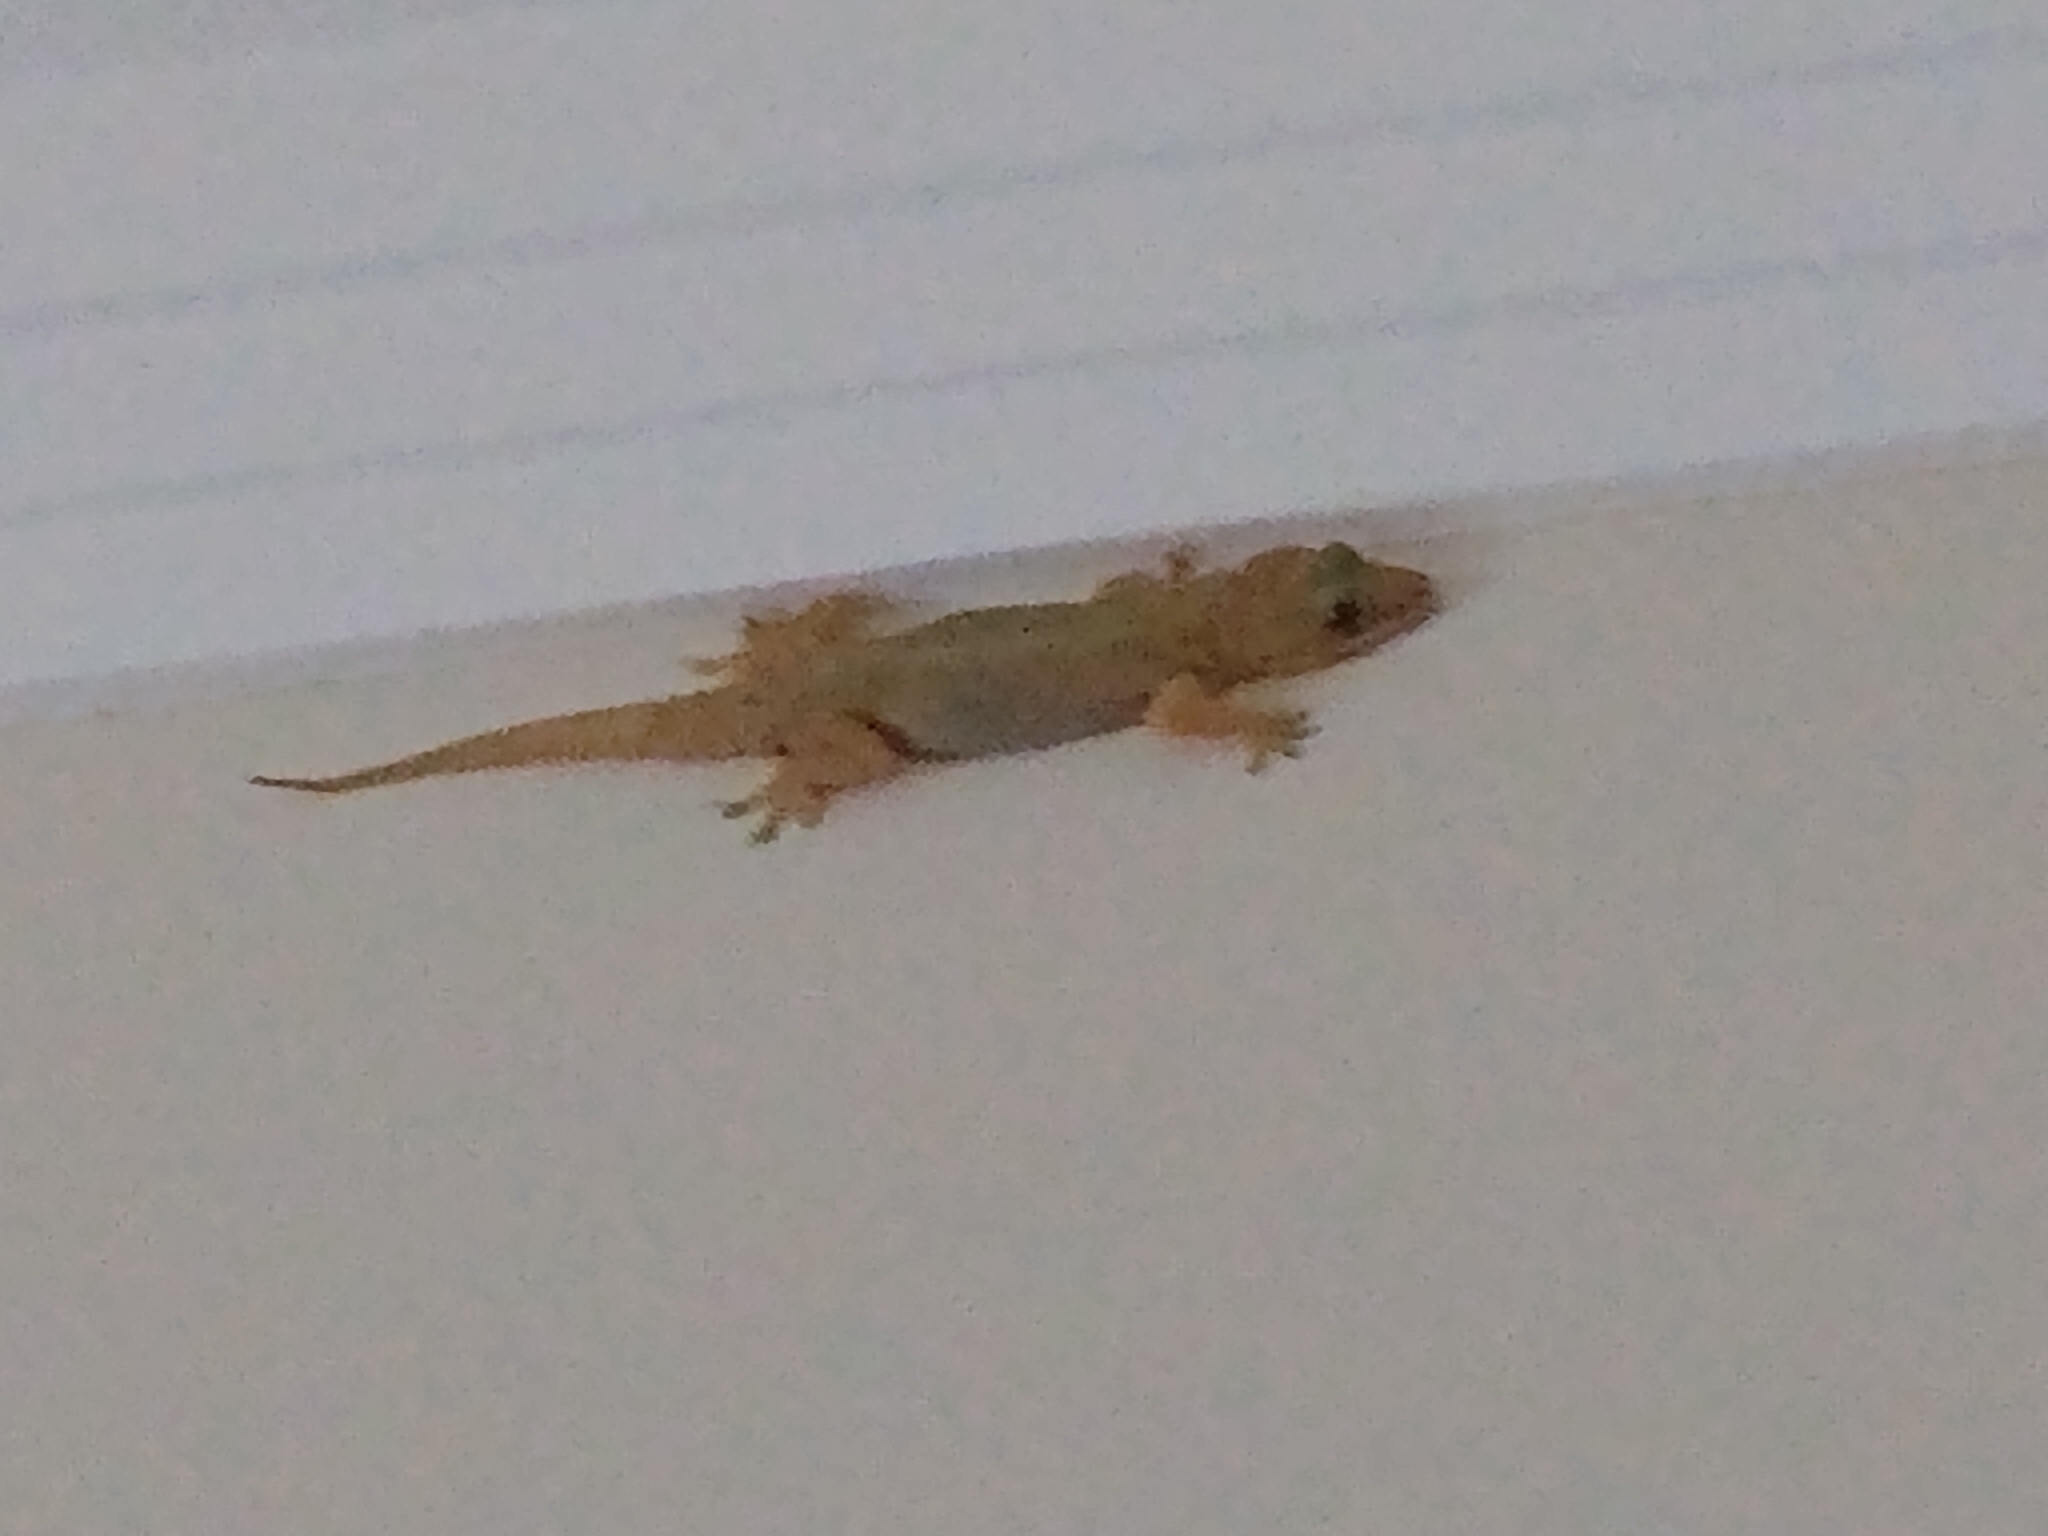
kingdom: Animalia
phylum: Chordata
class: Squamata
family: Gekkonidae
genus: Hemidactylus
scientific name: Hemidactylus mabouia
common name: House gecko
